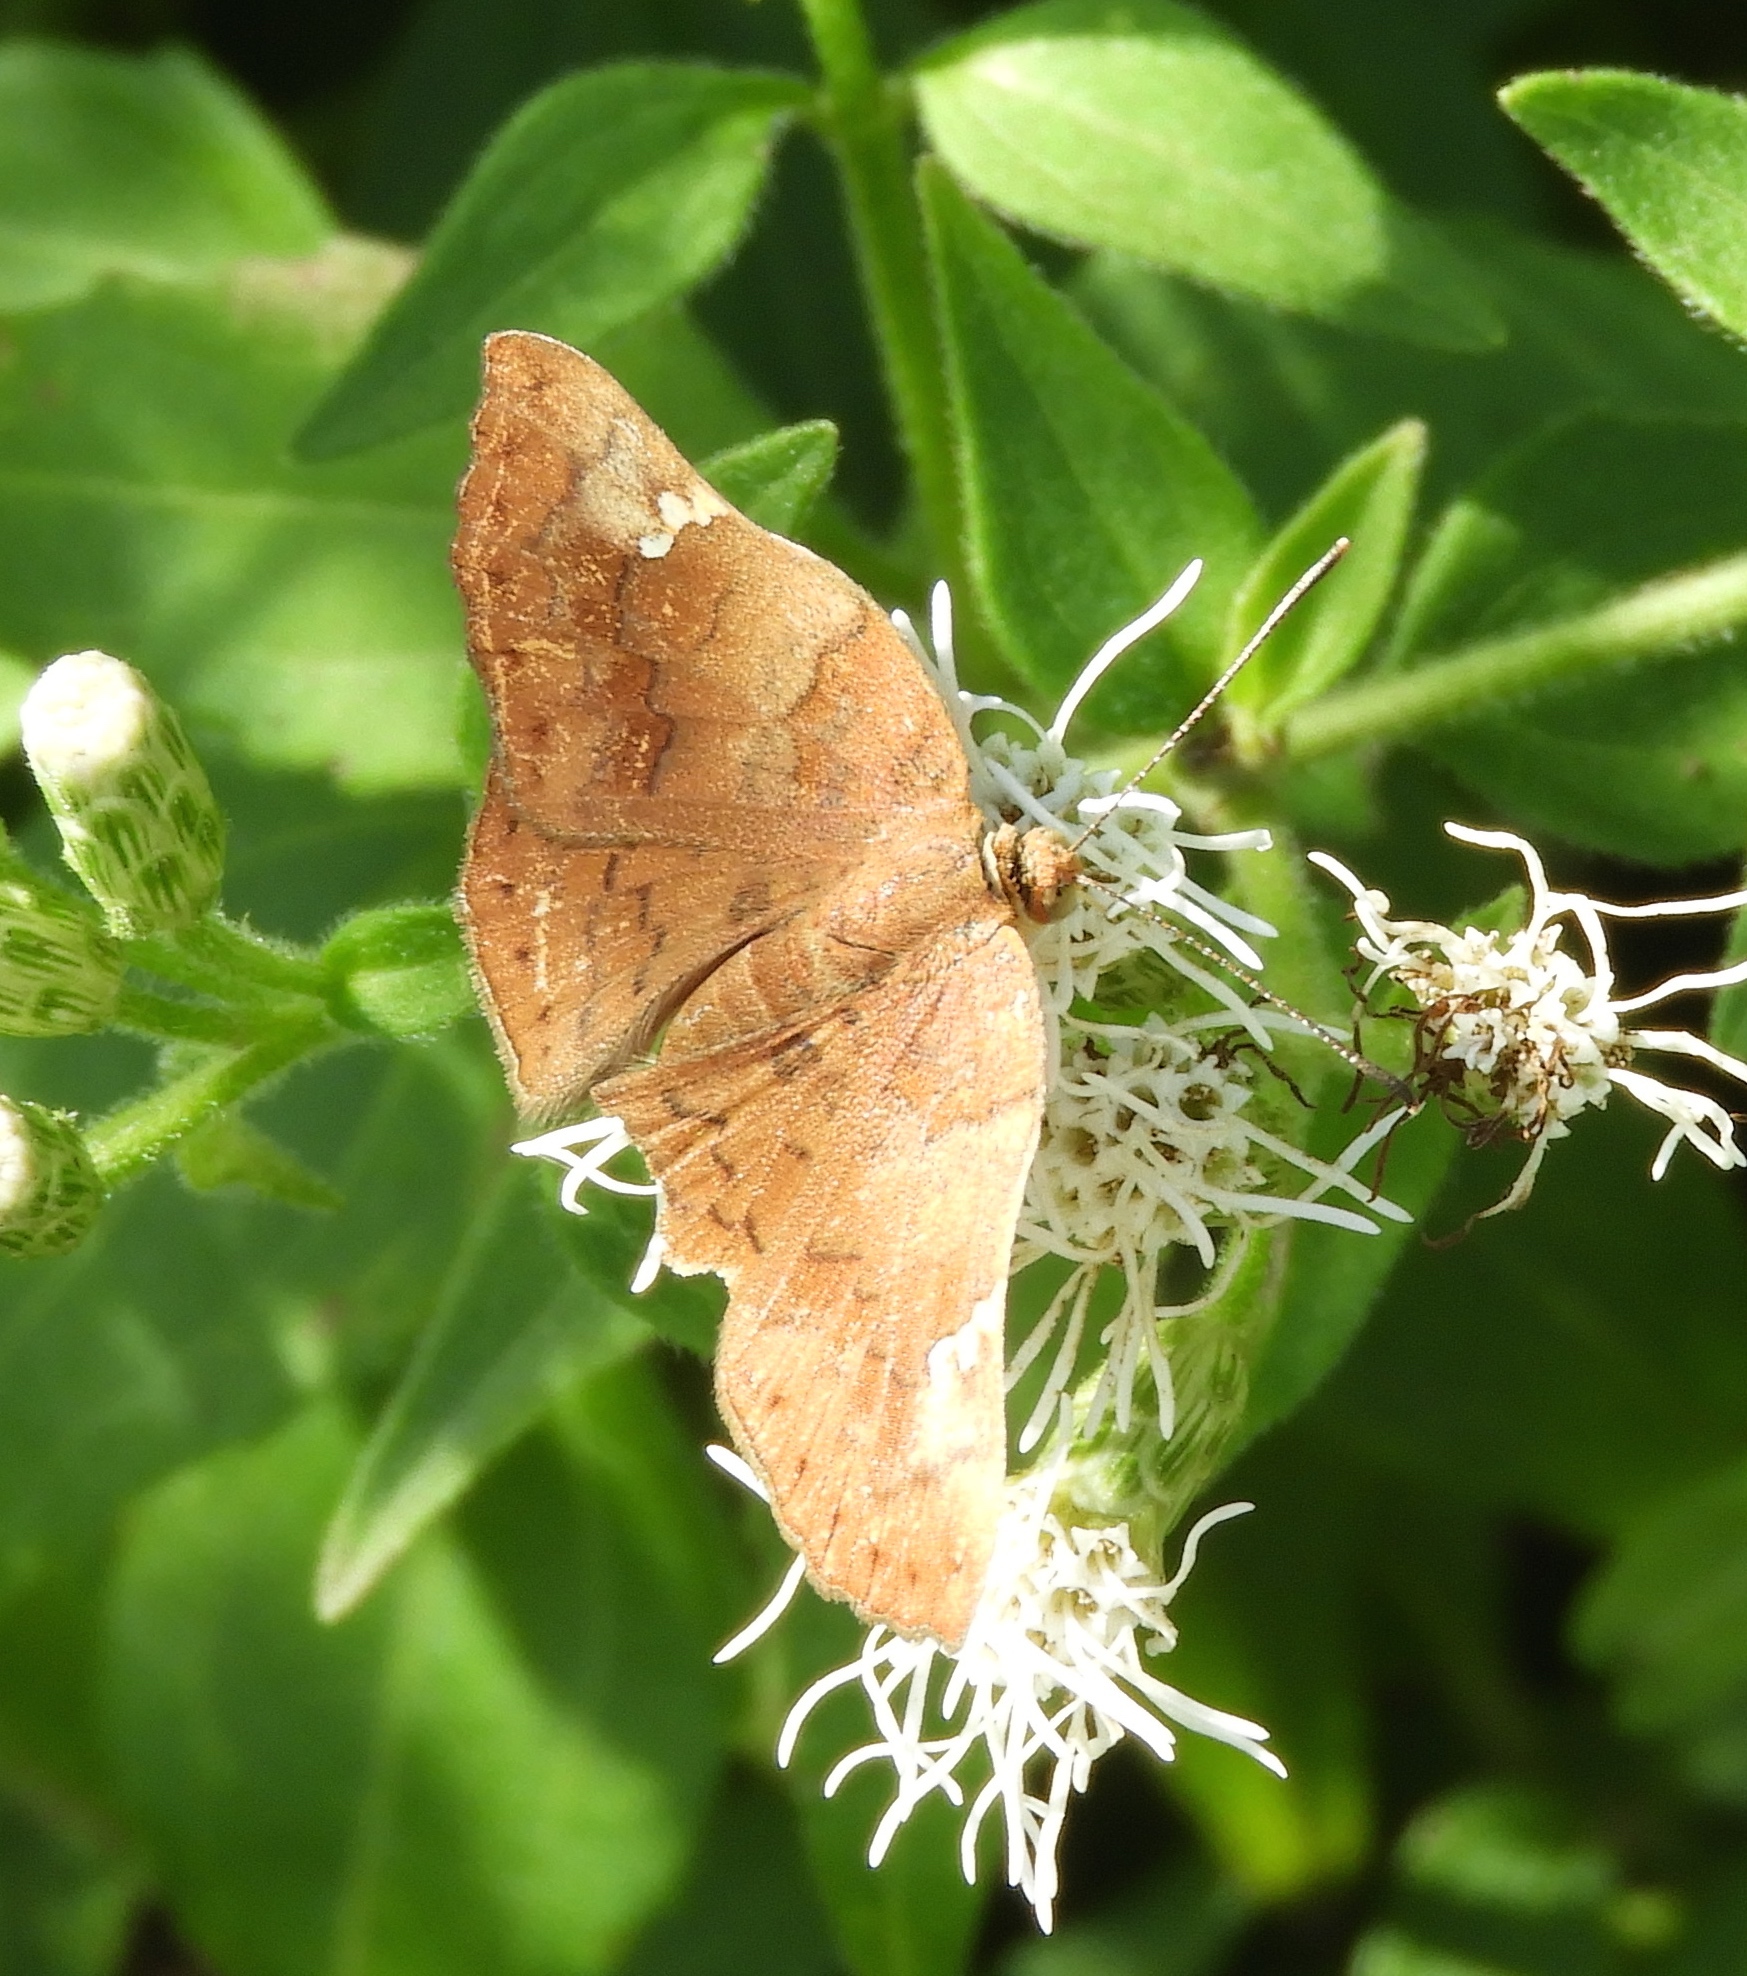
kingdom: Animalia
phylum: Arthropoda
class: Insecta
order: Lepidoptera
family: Riodinidae
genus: Curvie
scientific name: Curvie emesia
